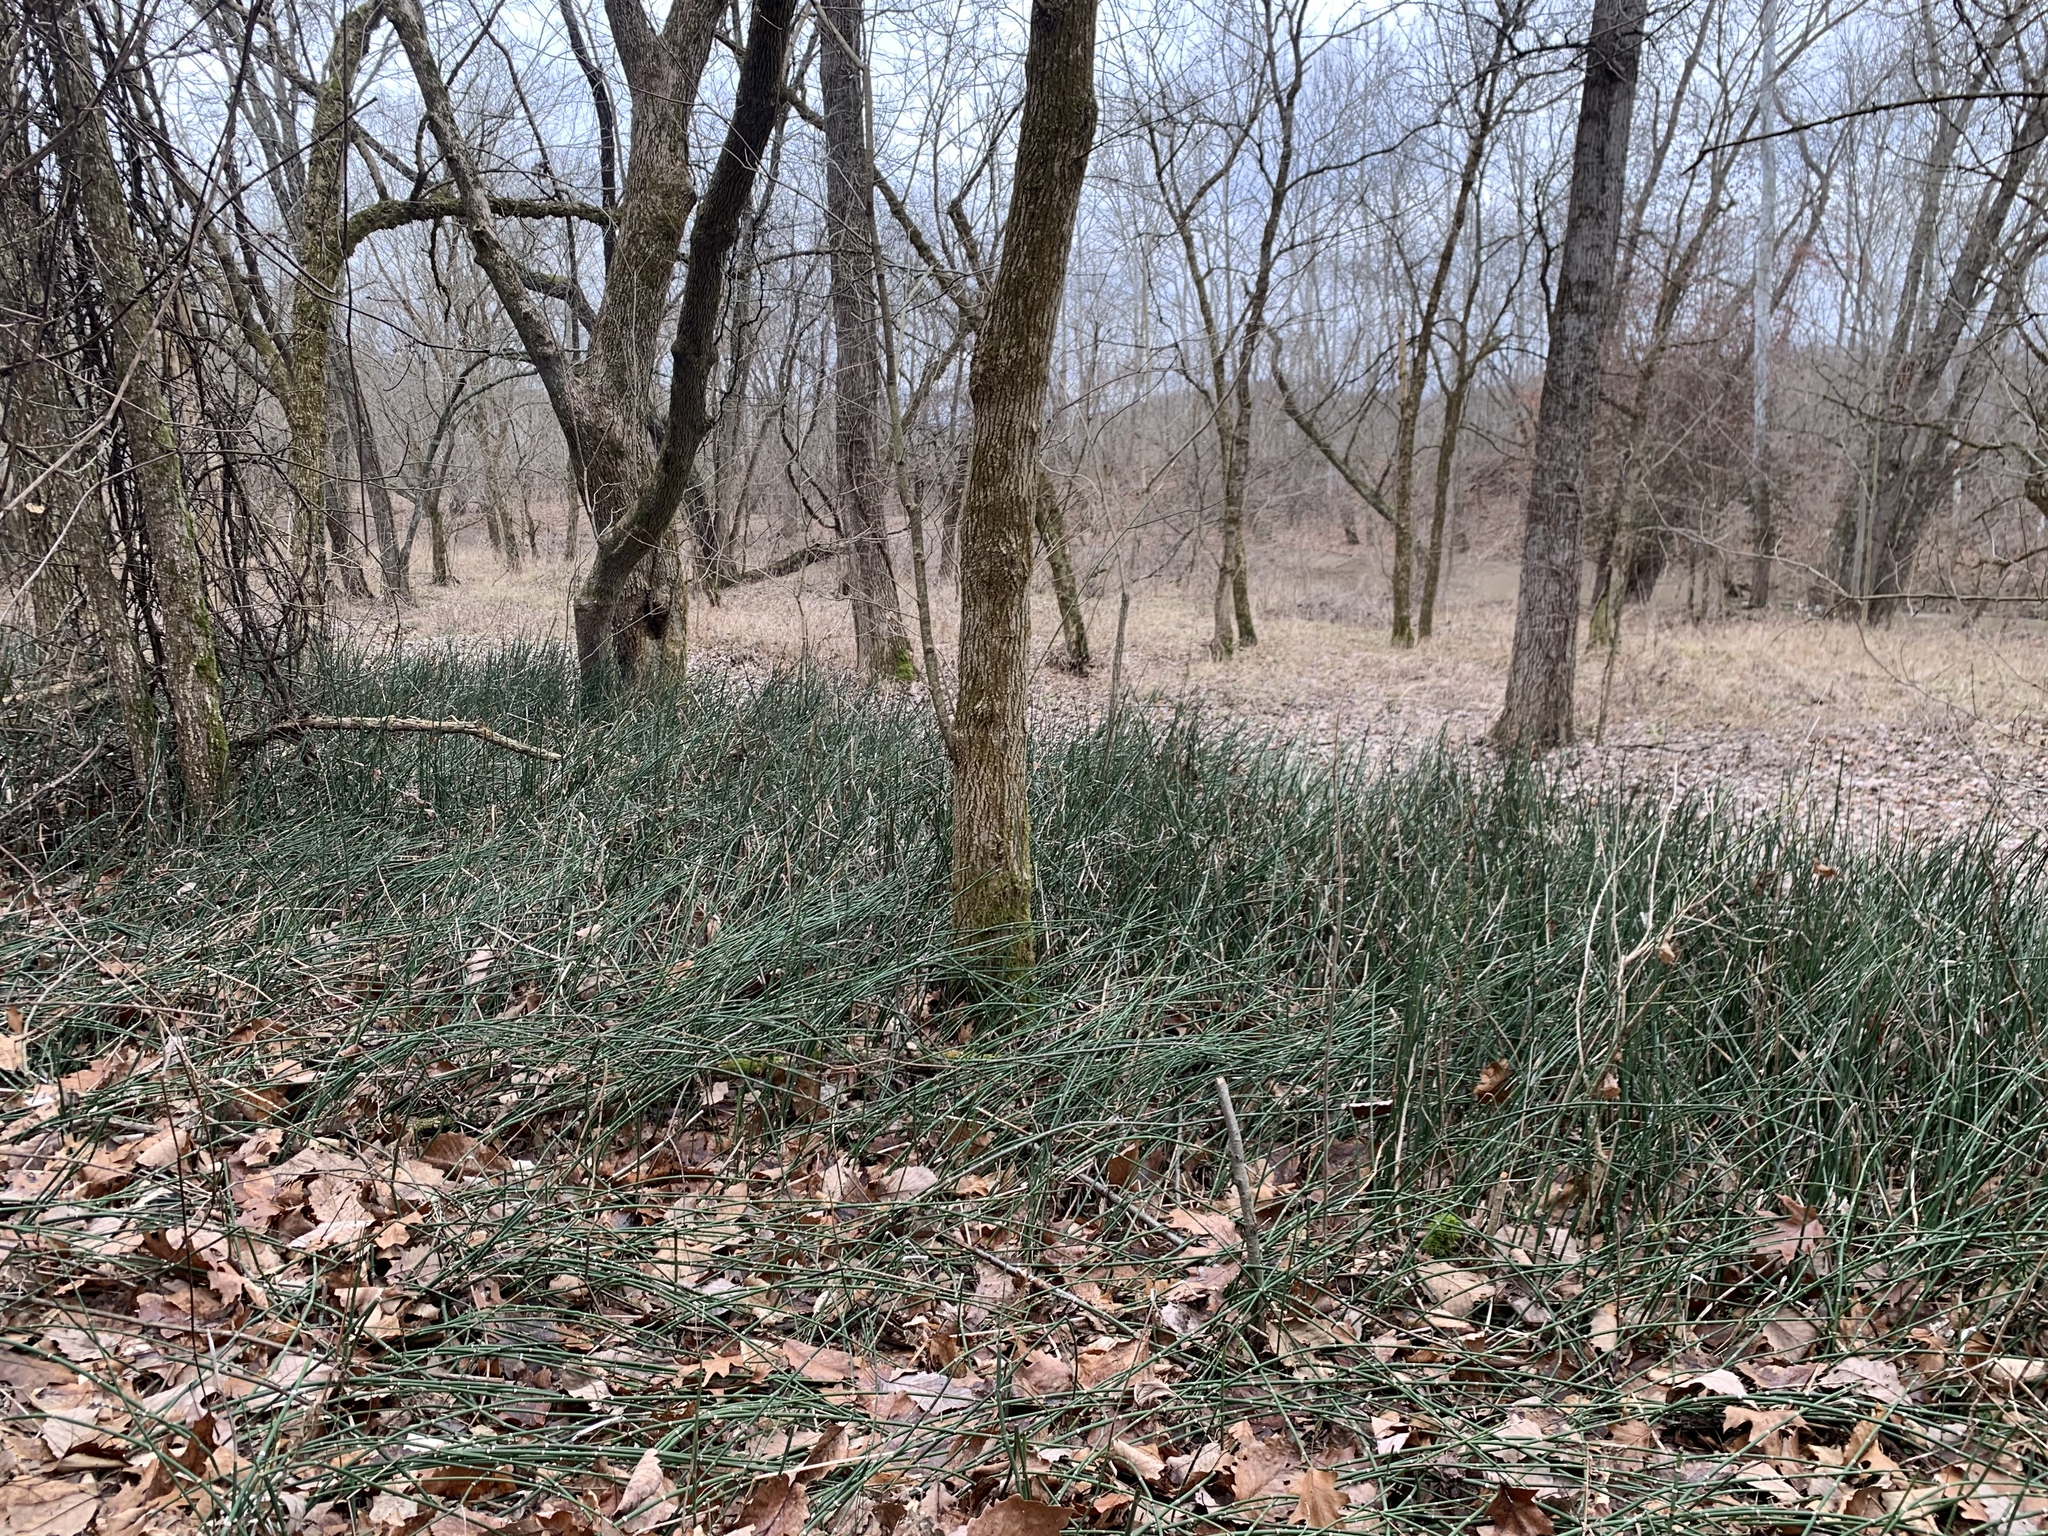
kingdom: Plantae
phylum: Tracheophyta
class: Polypodiopsida
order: Equisetales
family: Equisetaceae
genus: Equisetum
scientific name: Equisetum praealtum
